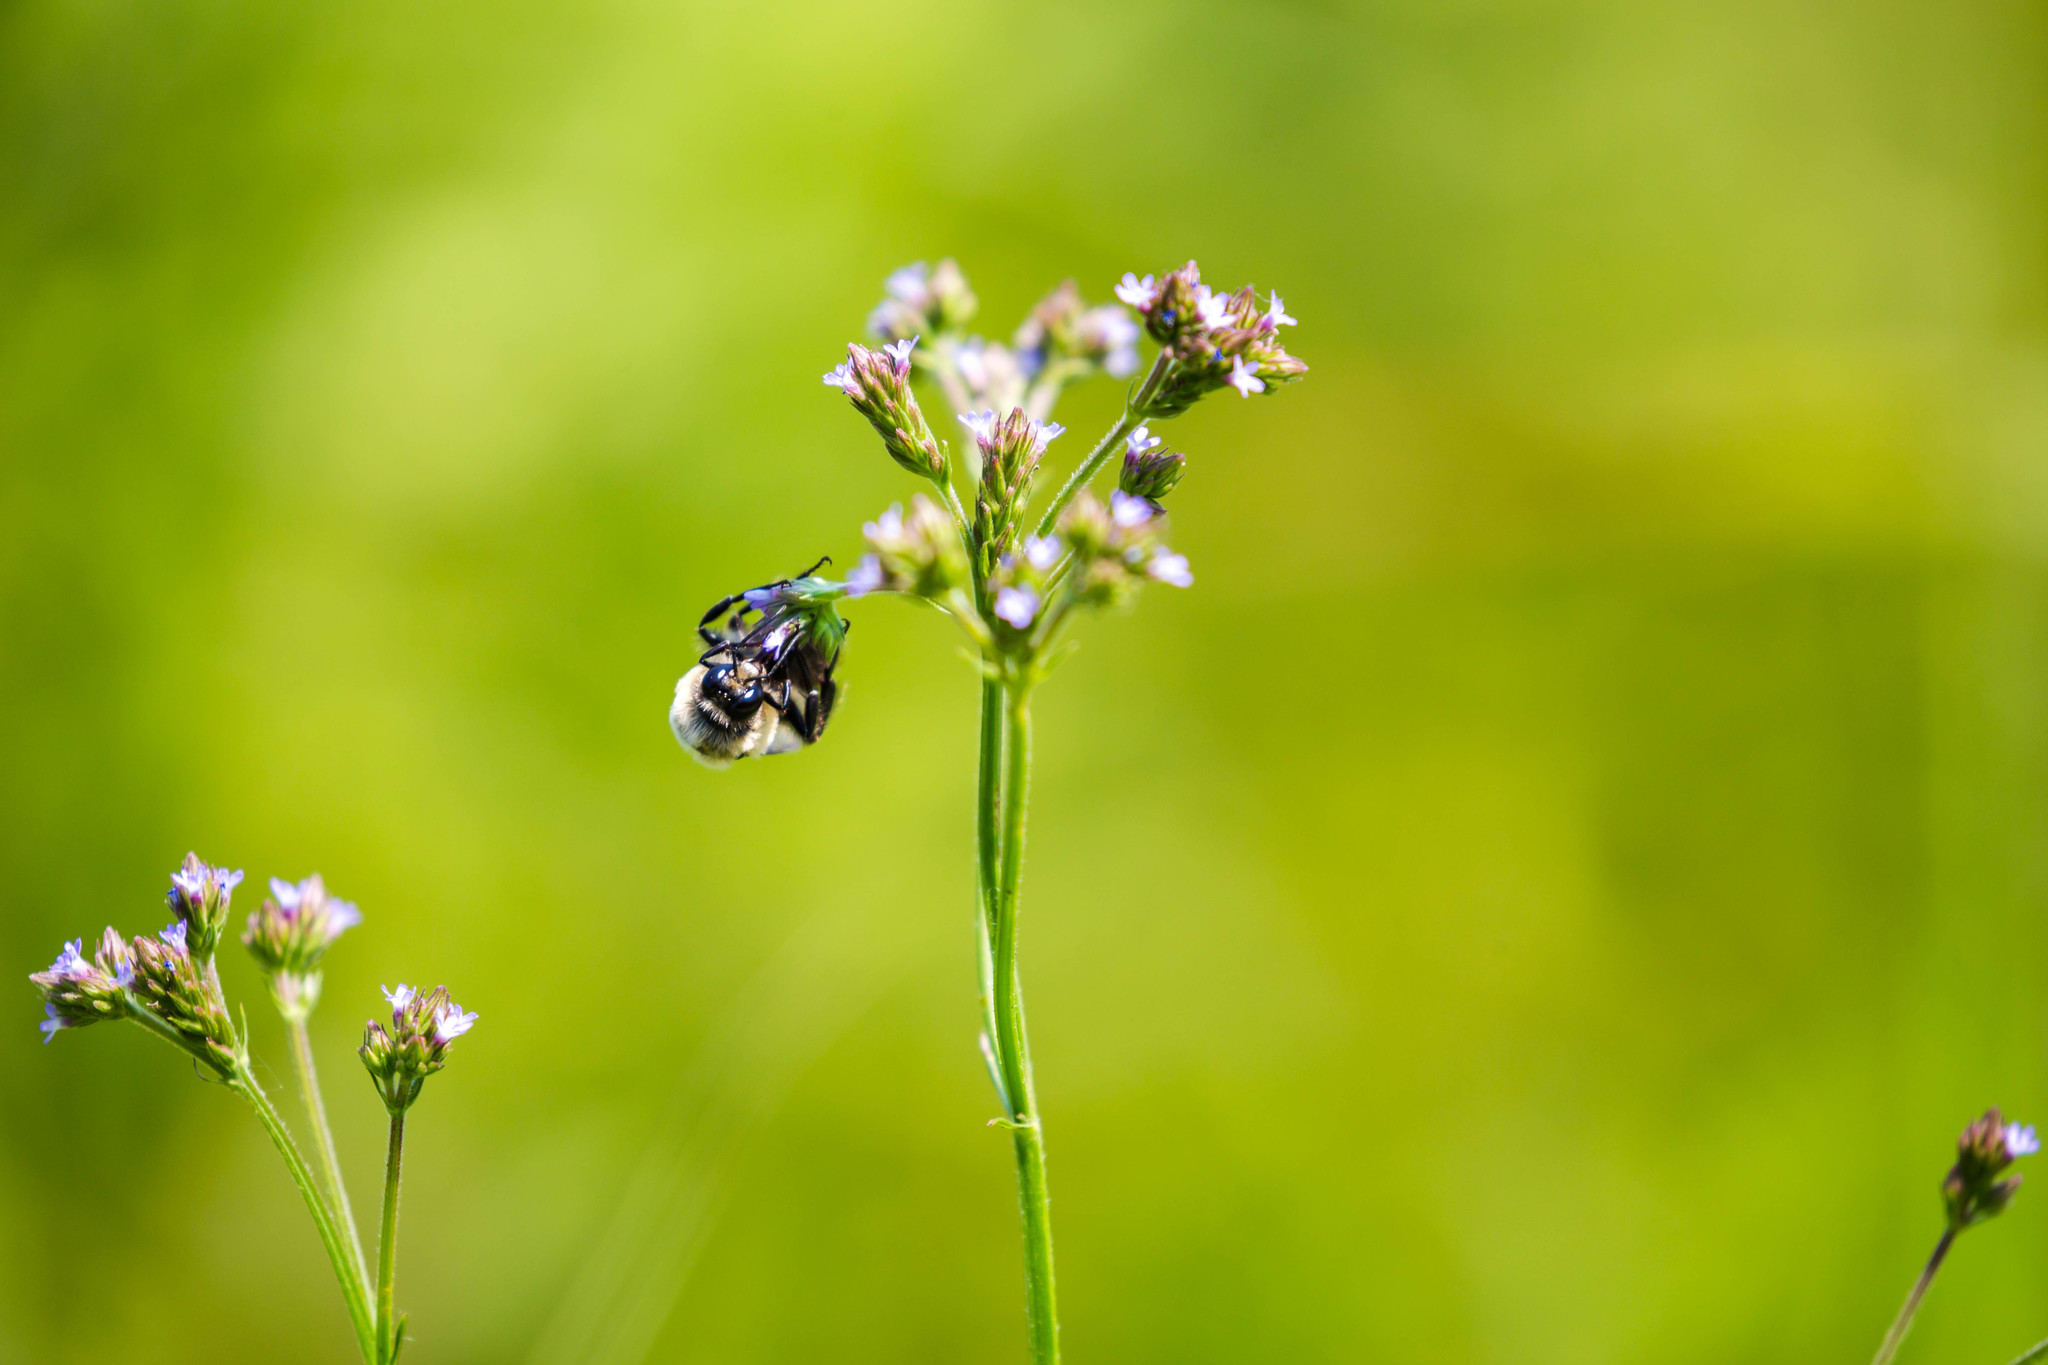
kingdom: Animalia
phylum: Arthropoda
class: Insecta
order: Hymenoptera
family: Apidae
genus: Bombus
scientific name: Bombus griseocollis
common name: Brown-belted bumble bee
